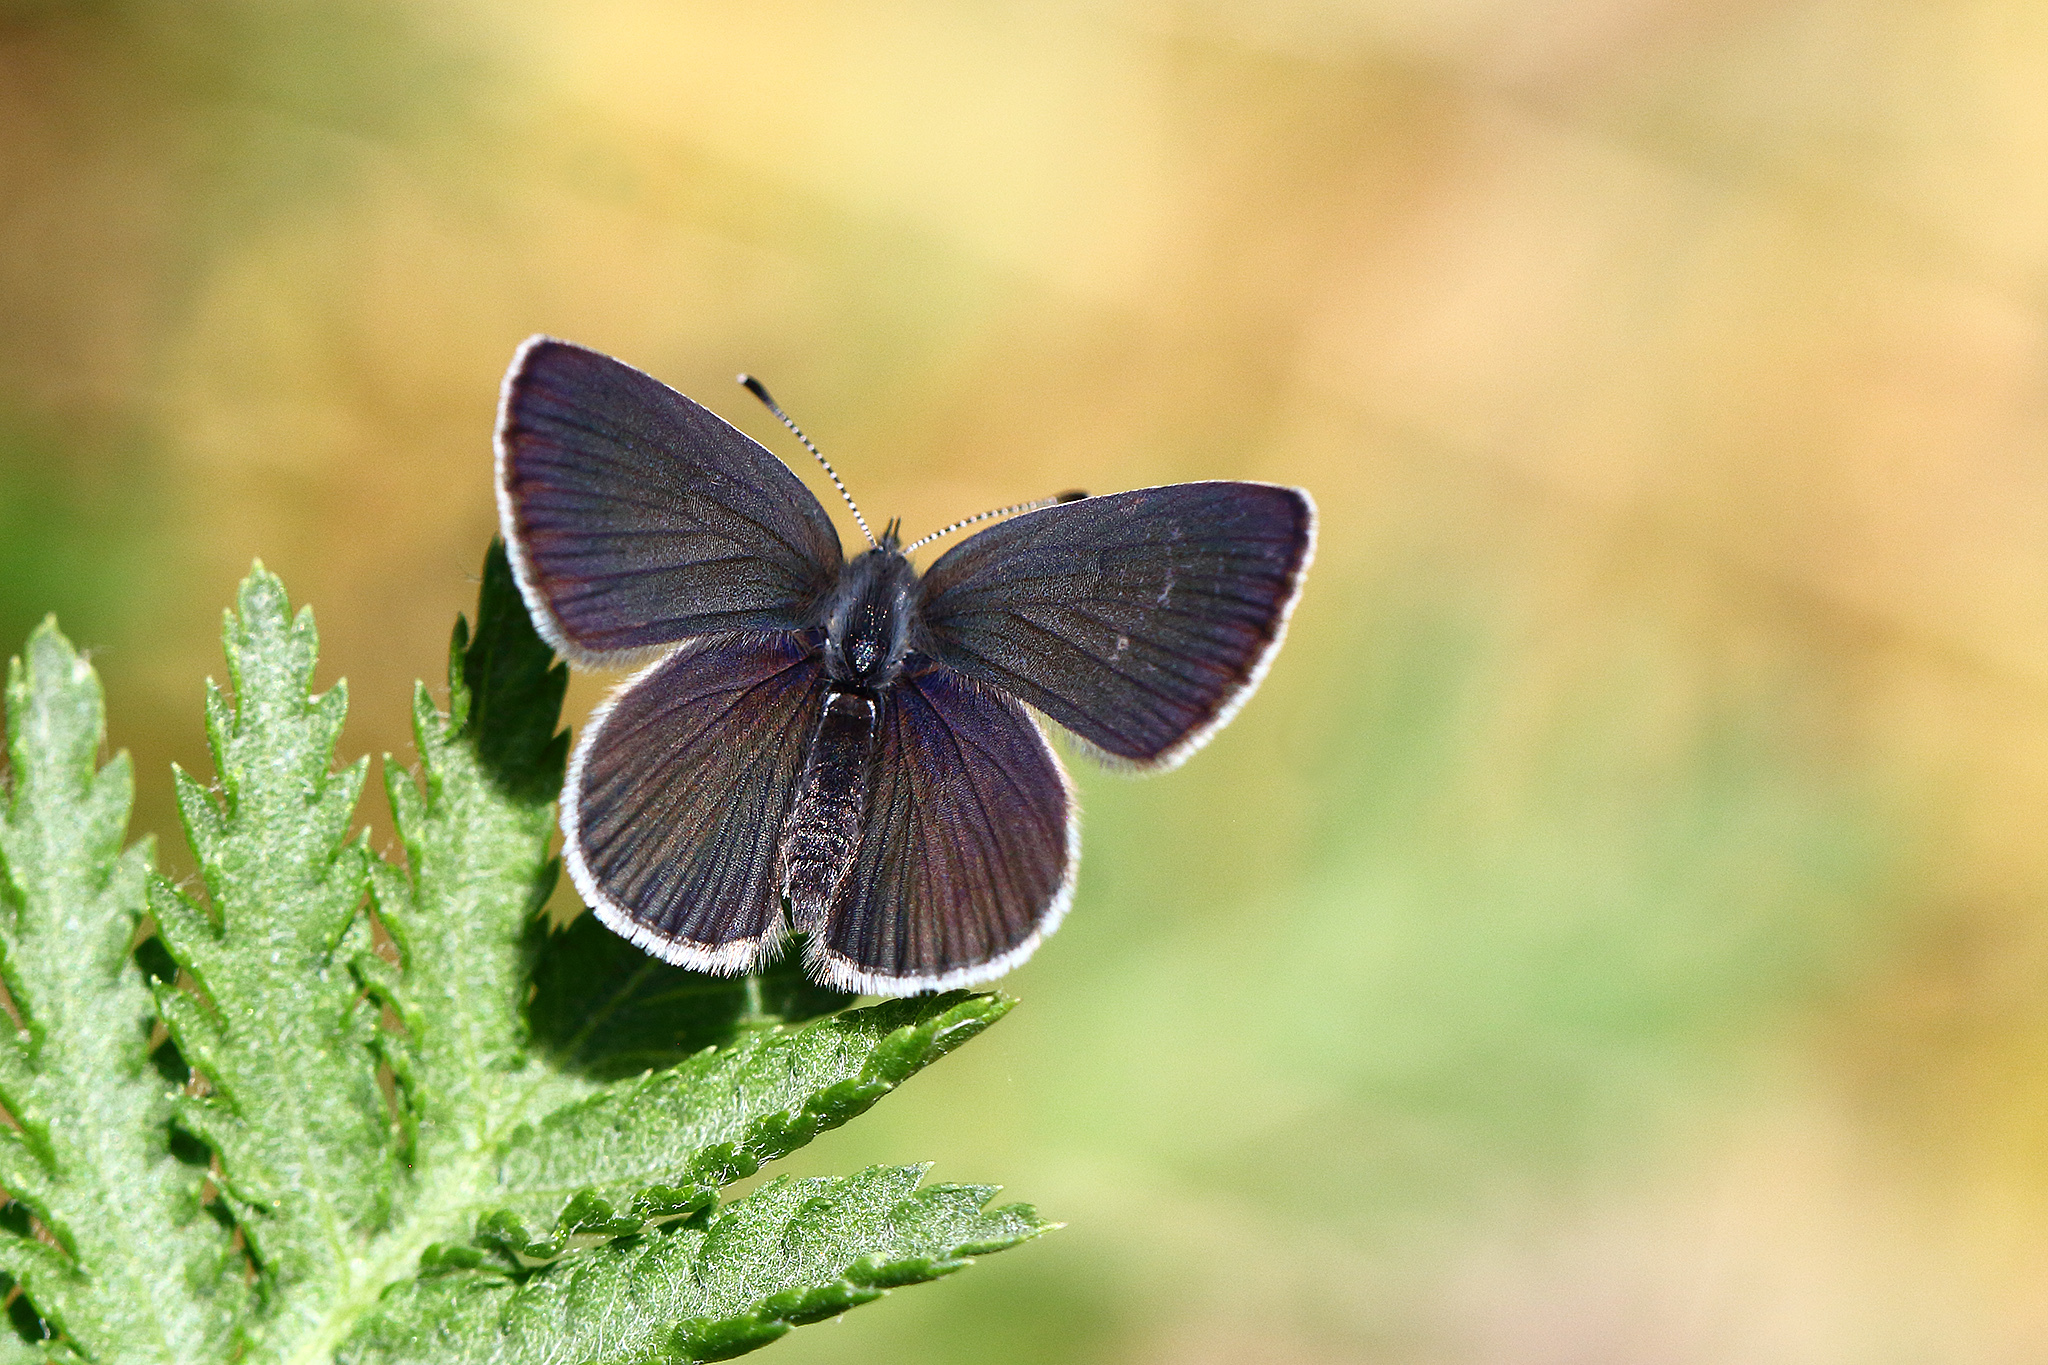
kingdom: Animalia
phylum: Arthropoda
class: Insecta
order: Lepidoptera
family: Lycaenidae
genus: Cupido
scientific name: Cupido minimus
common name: Small blue
